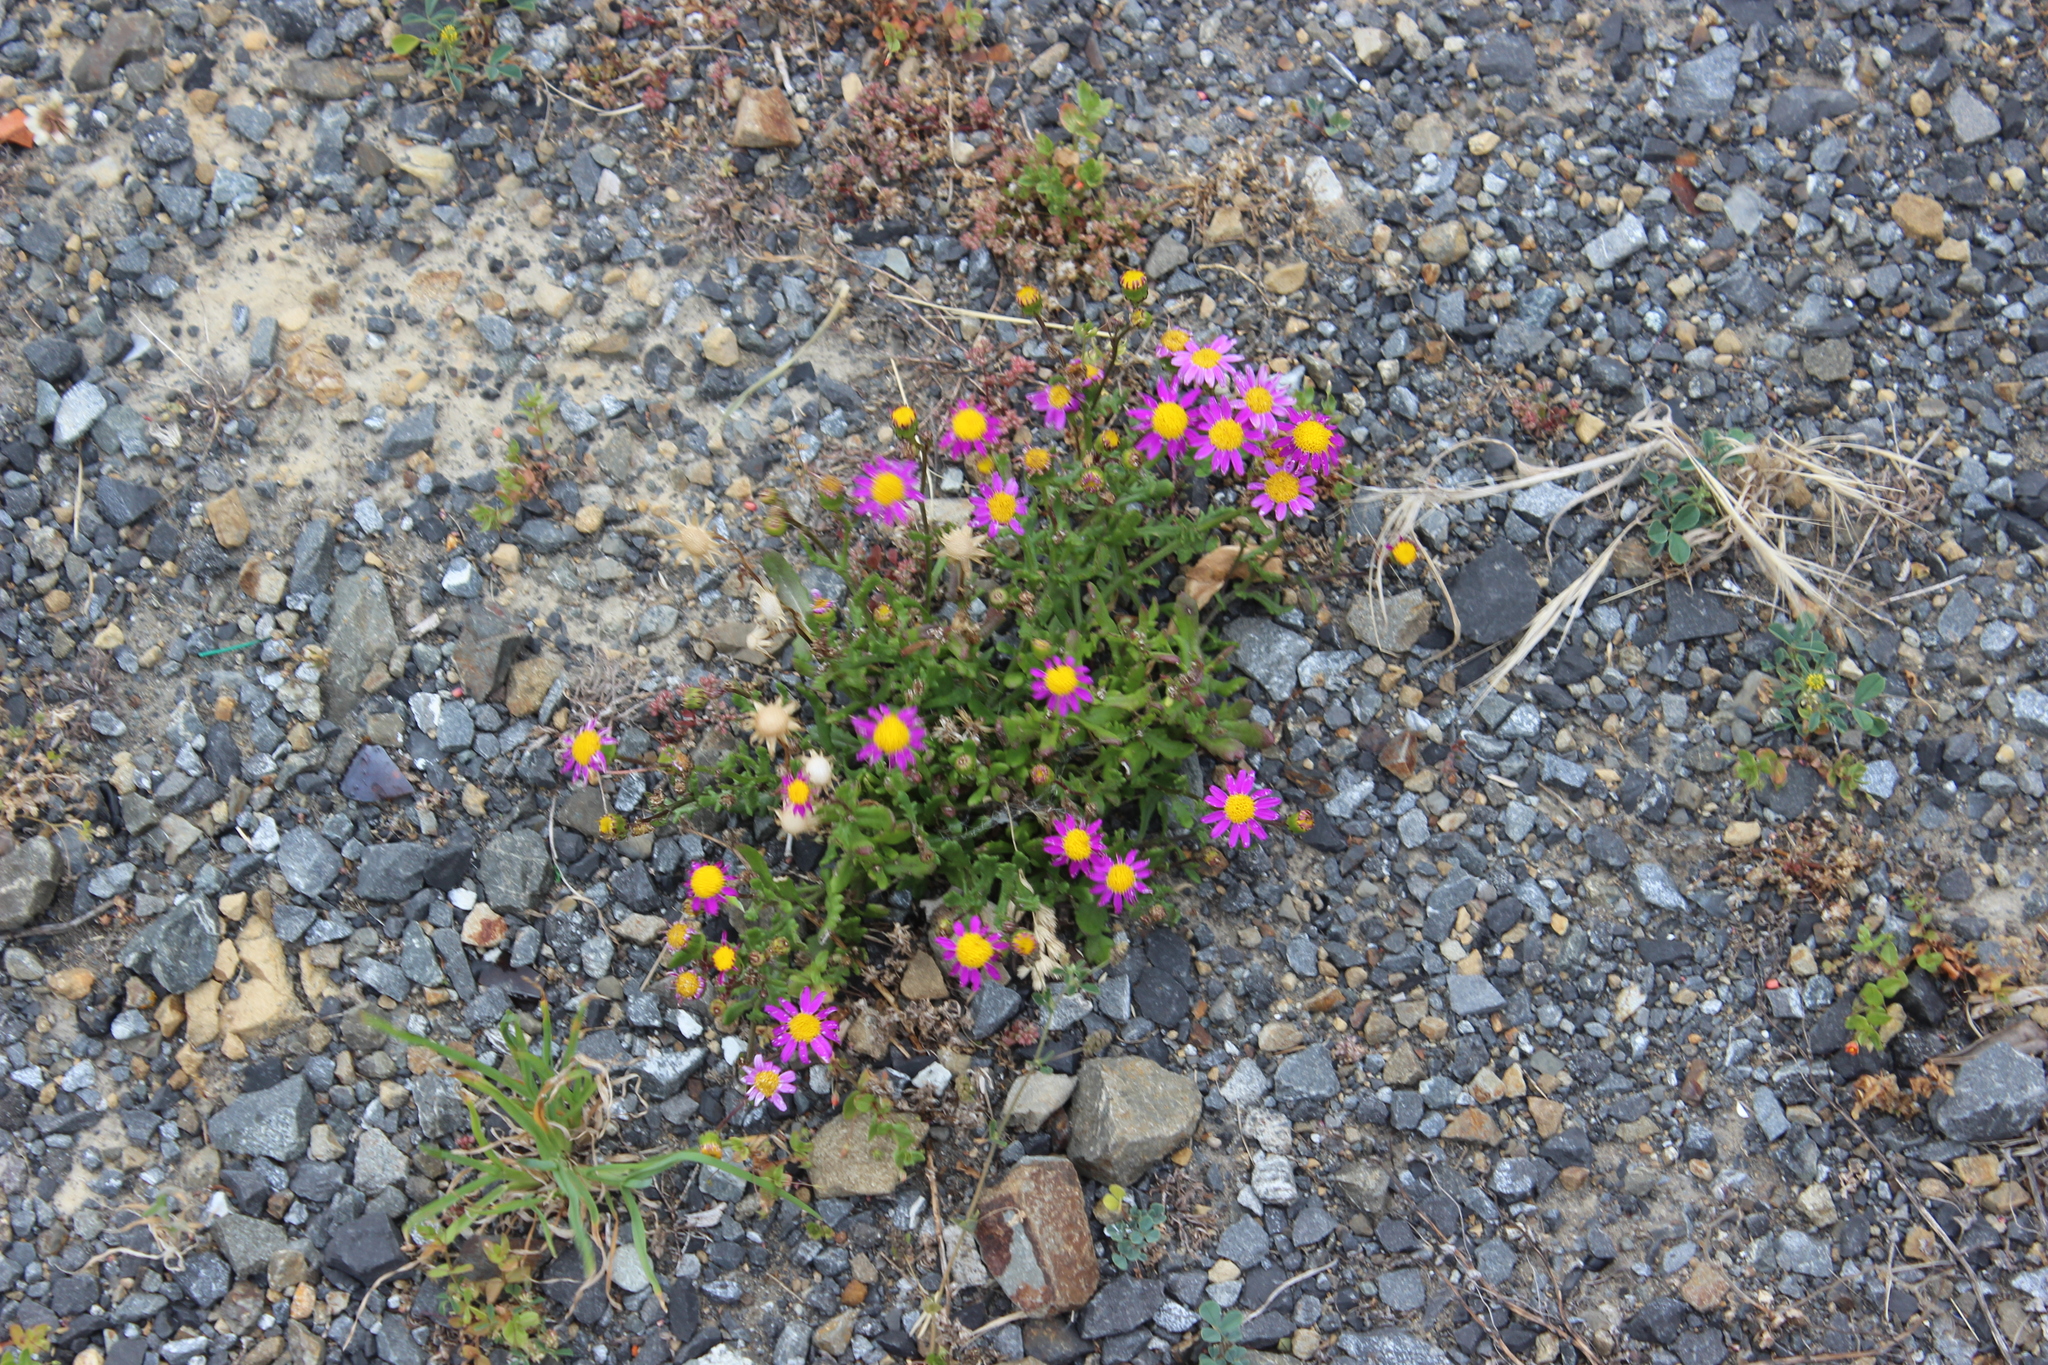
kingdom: Plantae
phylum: Tracheophyta
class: Magnoliopsida
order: Asterales
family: Asteraceae
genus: Senecio
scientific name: Senecio elegans
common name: Purple groundsel
